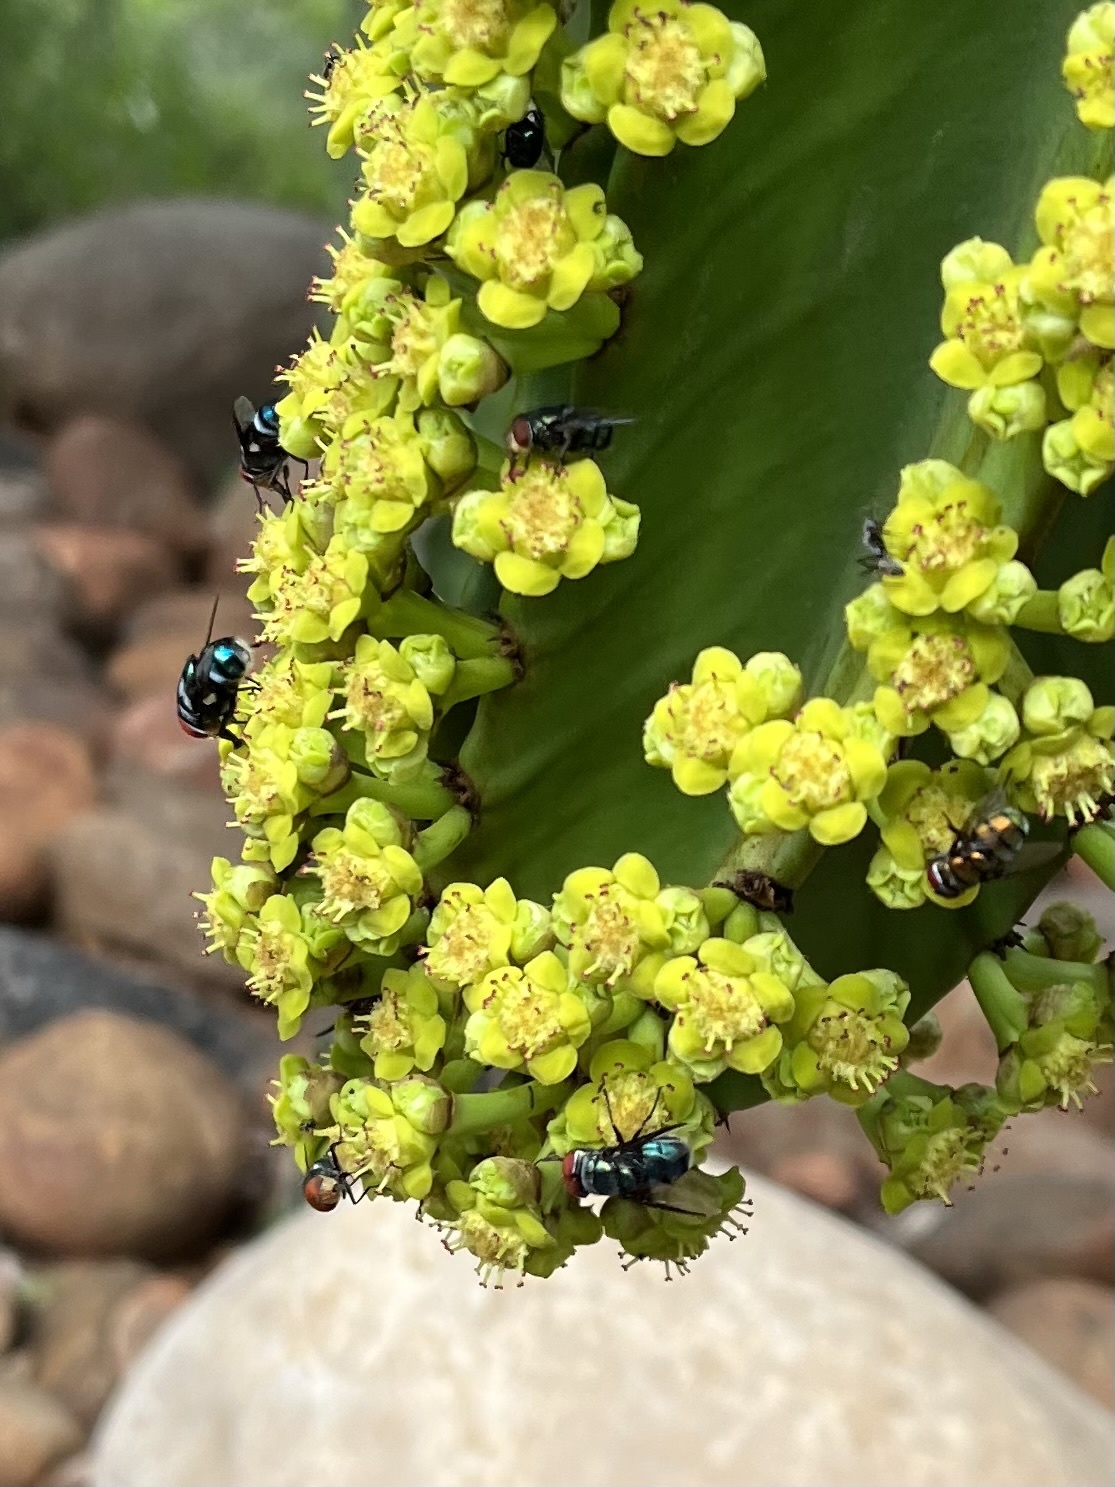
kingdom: Plantae
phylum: Tracheophyta
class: Magnoliopsida
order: Malpighiales
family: Euphorbiaceae
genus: Euphorbia
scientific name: Euphorbia cooperi
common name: Candelabra tree
